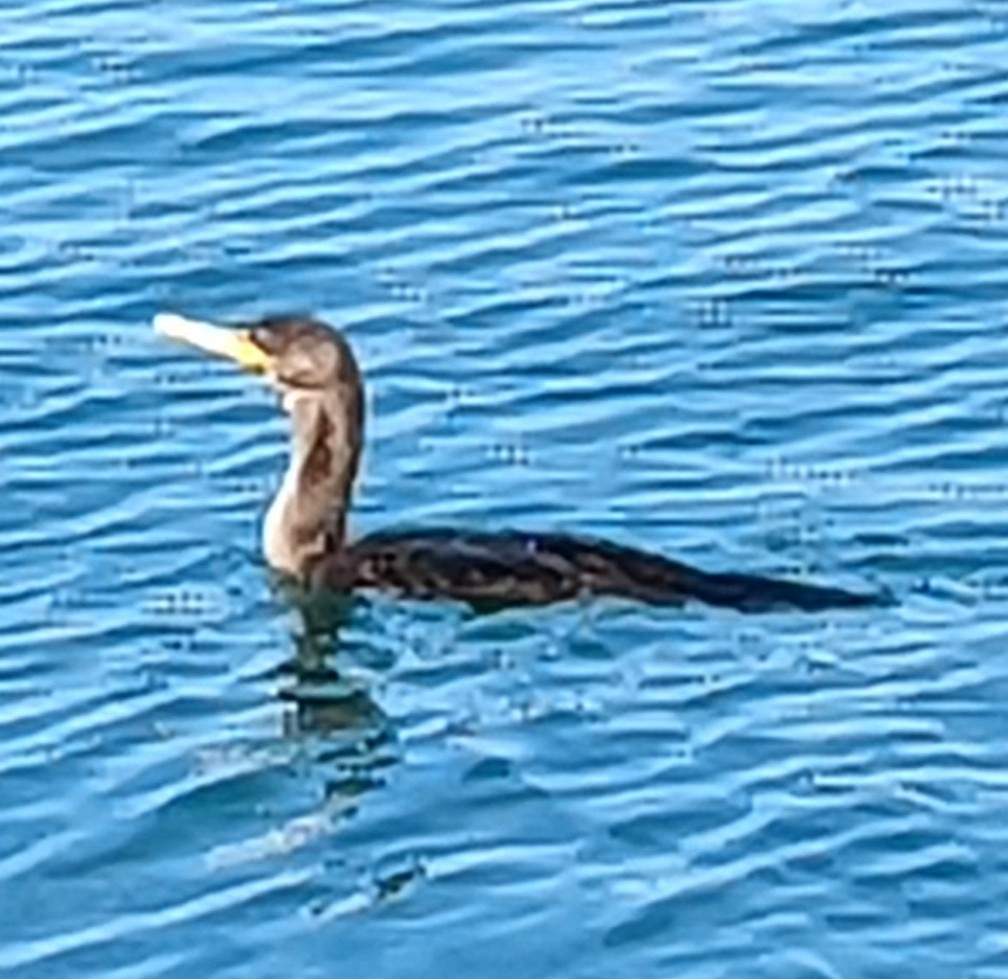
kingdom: Animalia
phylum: Chordata
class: Aves
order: Suliformes
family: Phalacrocoracidae
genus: Phalacrocorax
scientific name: Phalacrocorax auritus
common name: Double-crested cormorant
